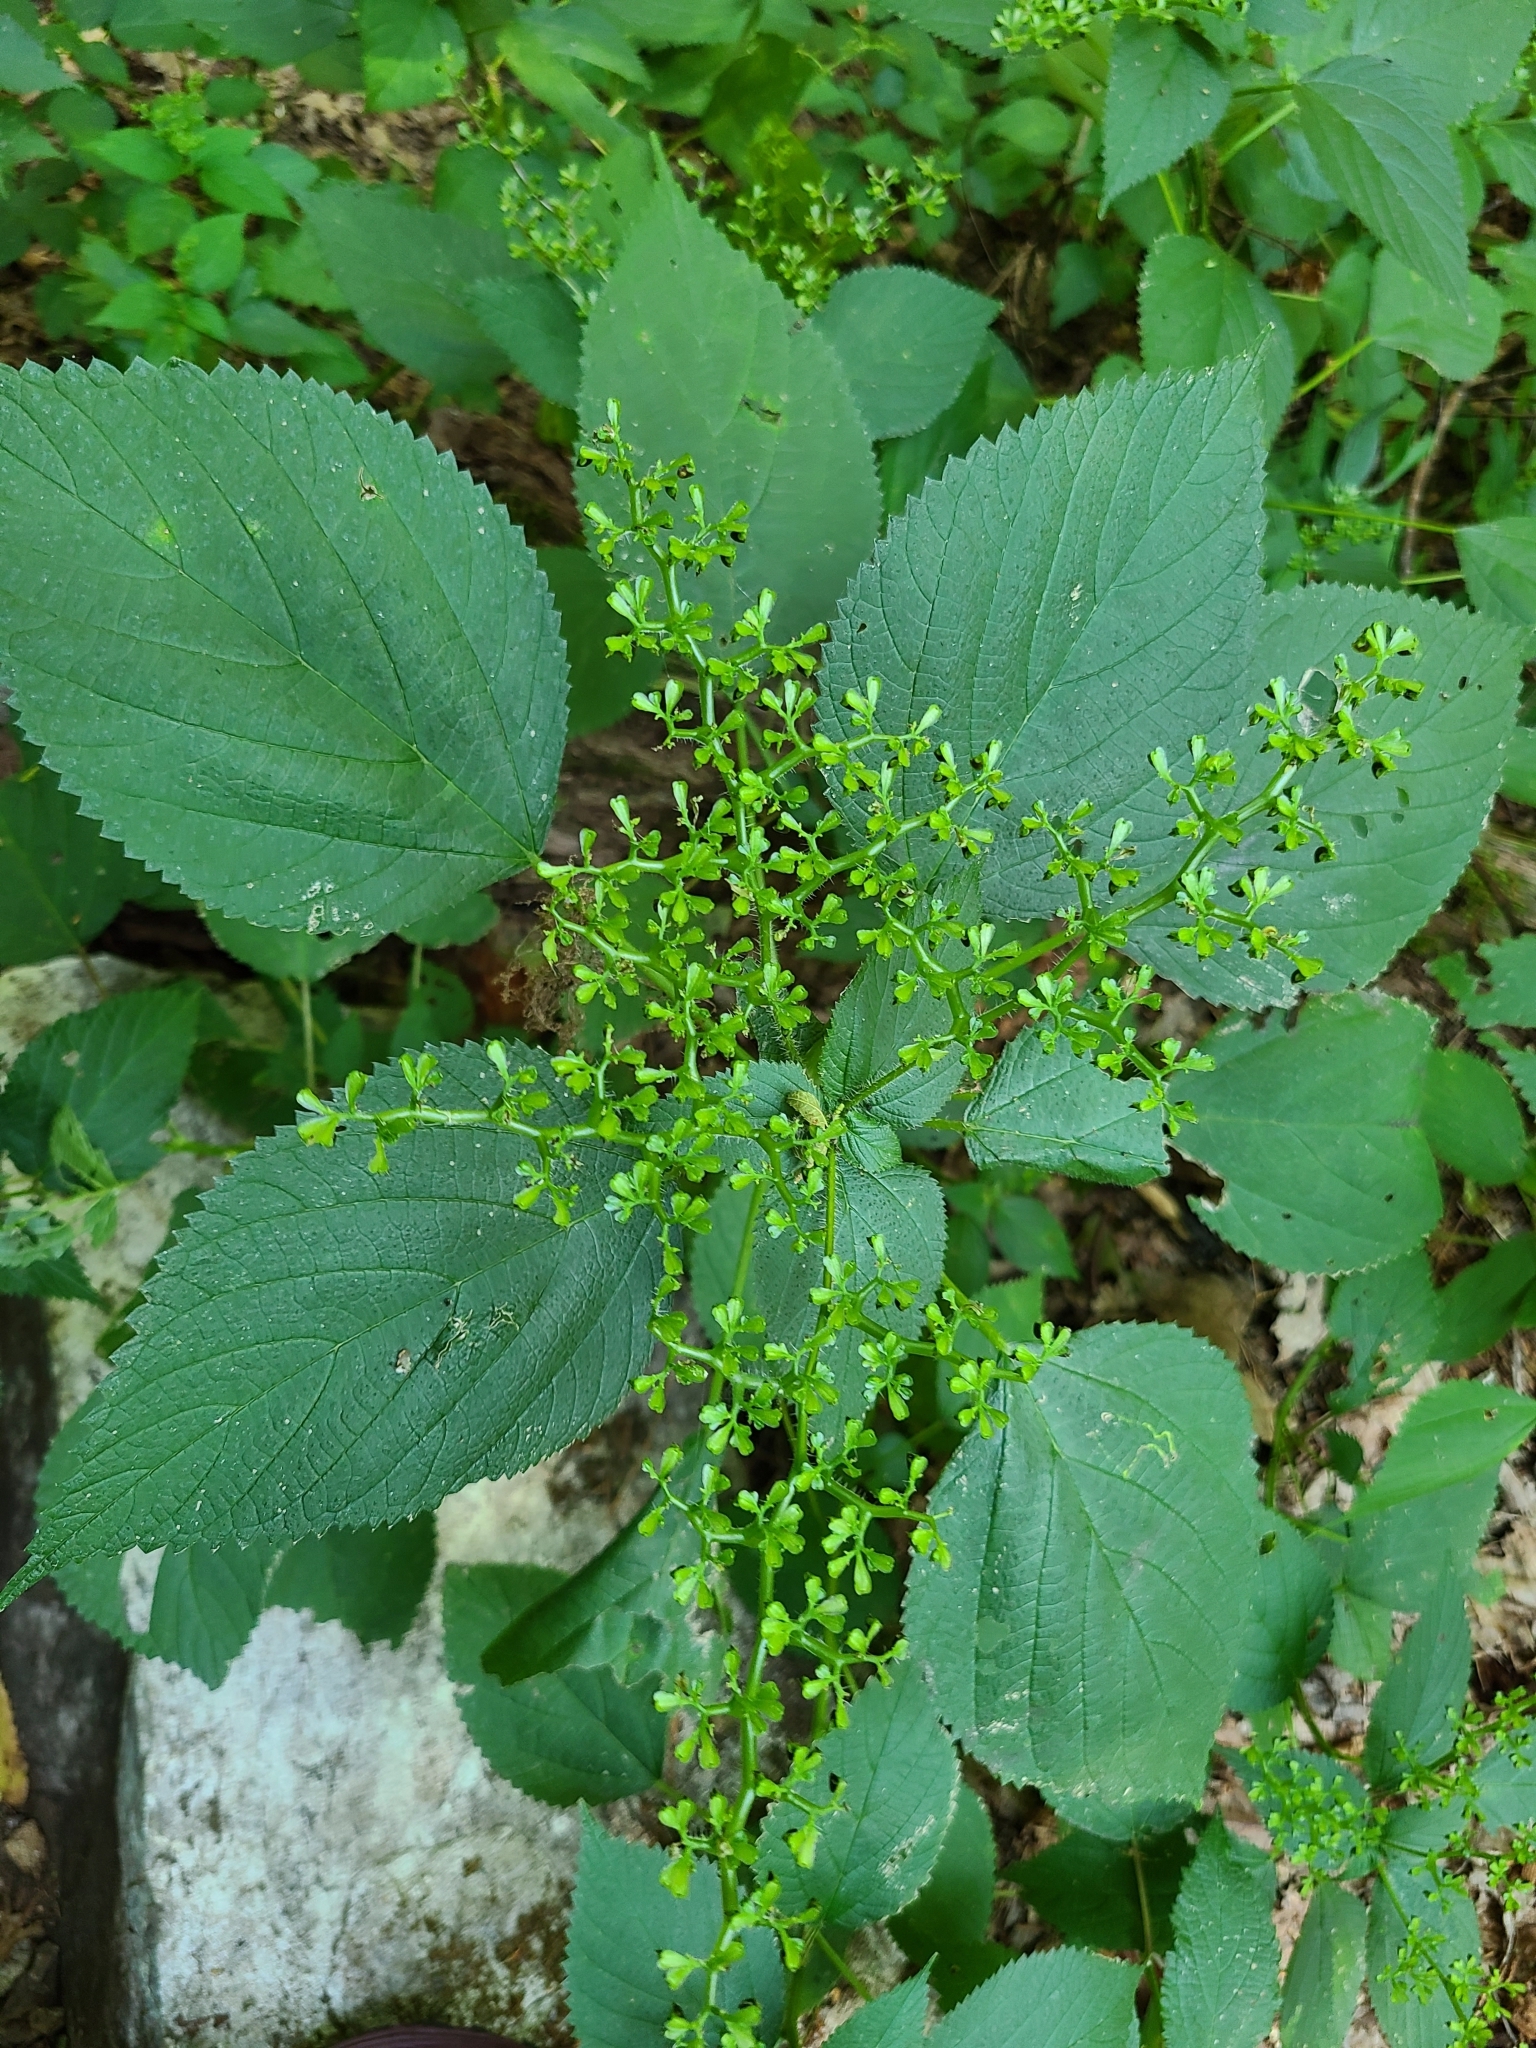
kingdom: Plantae
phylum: Tracheophyta
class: Magnoliopsida
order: Rosales
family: Urticaceae
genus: Laportea
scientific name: Laportea canadensis
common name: Canada nettle
